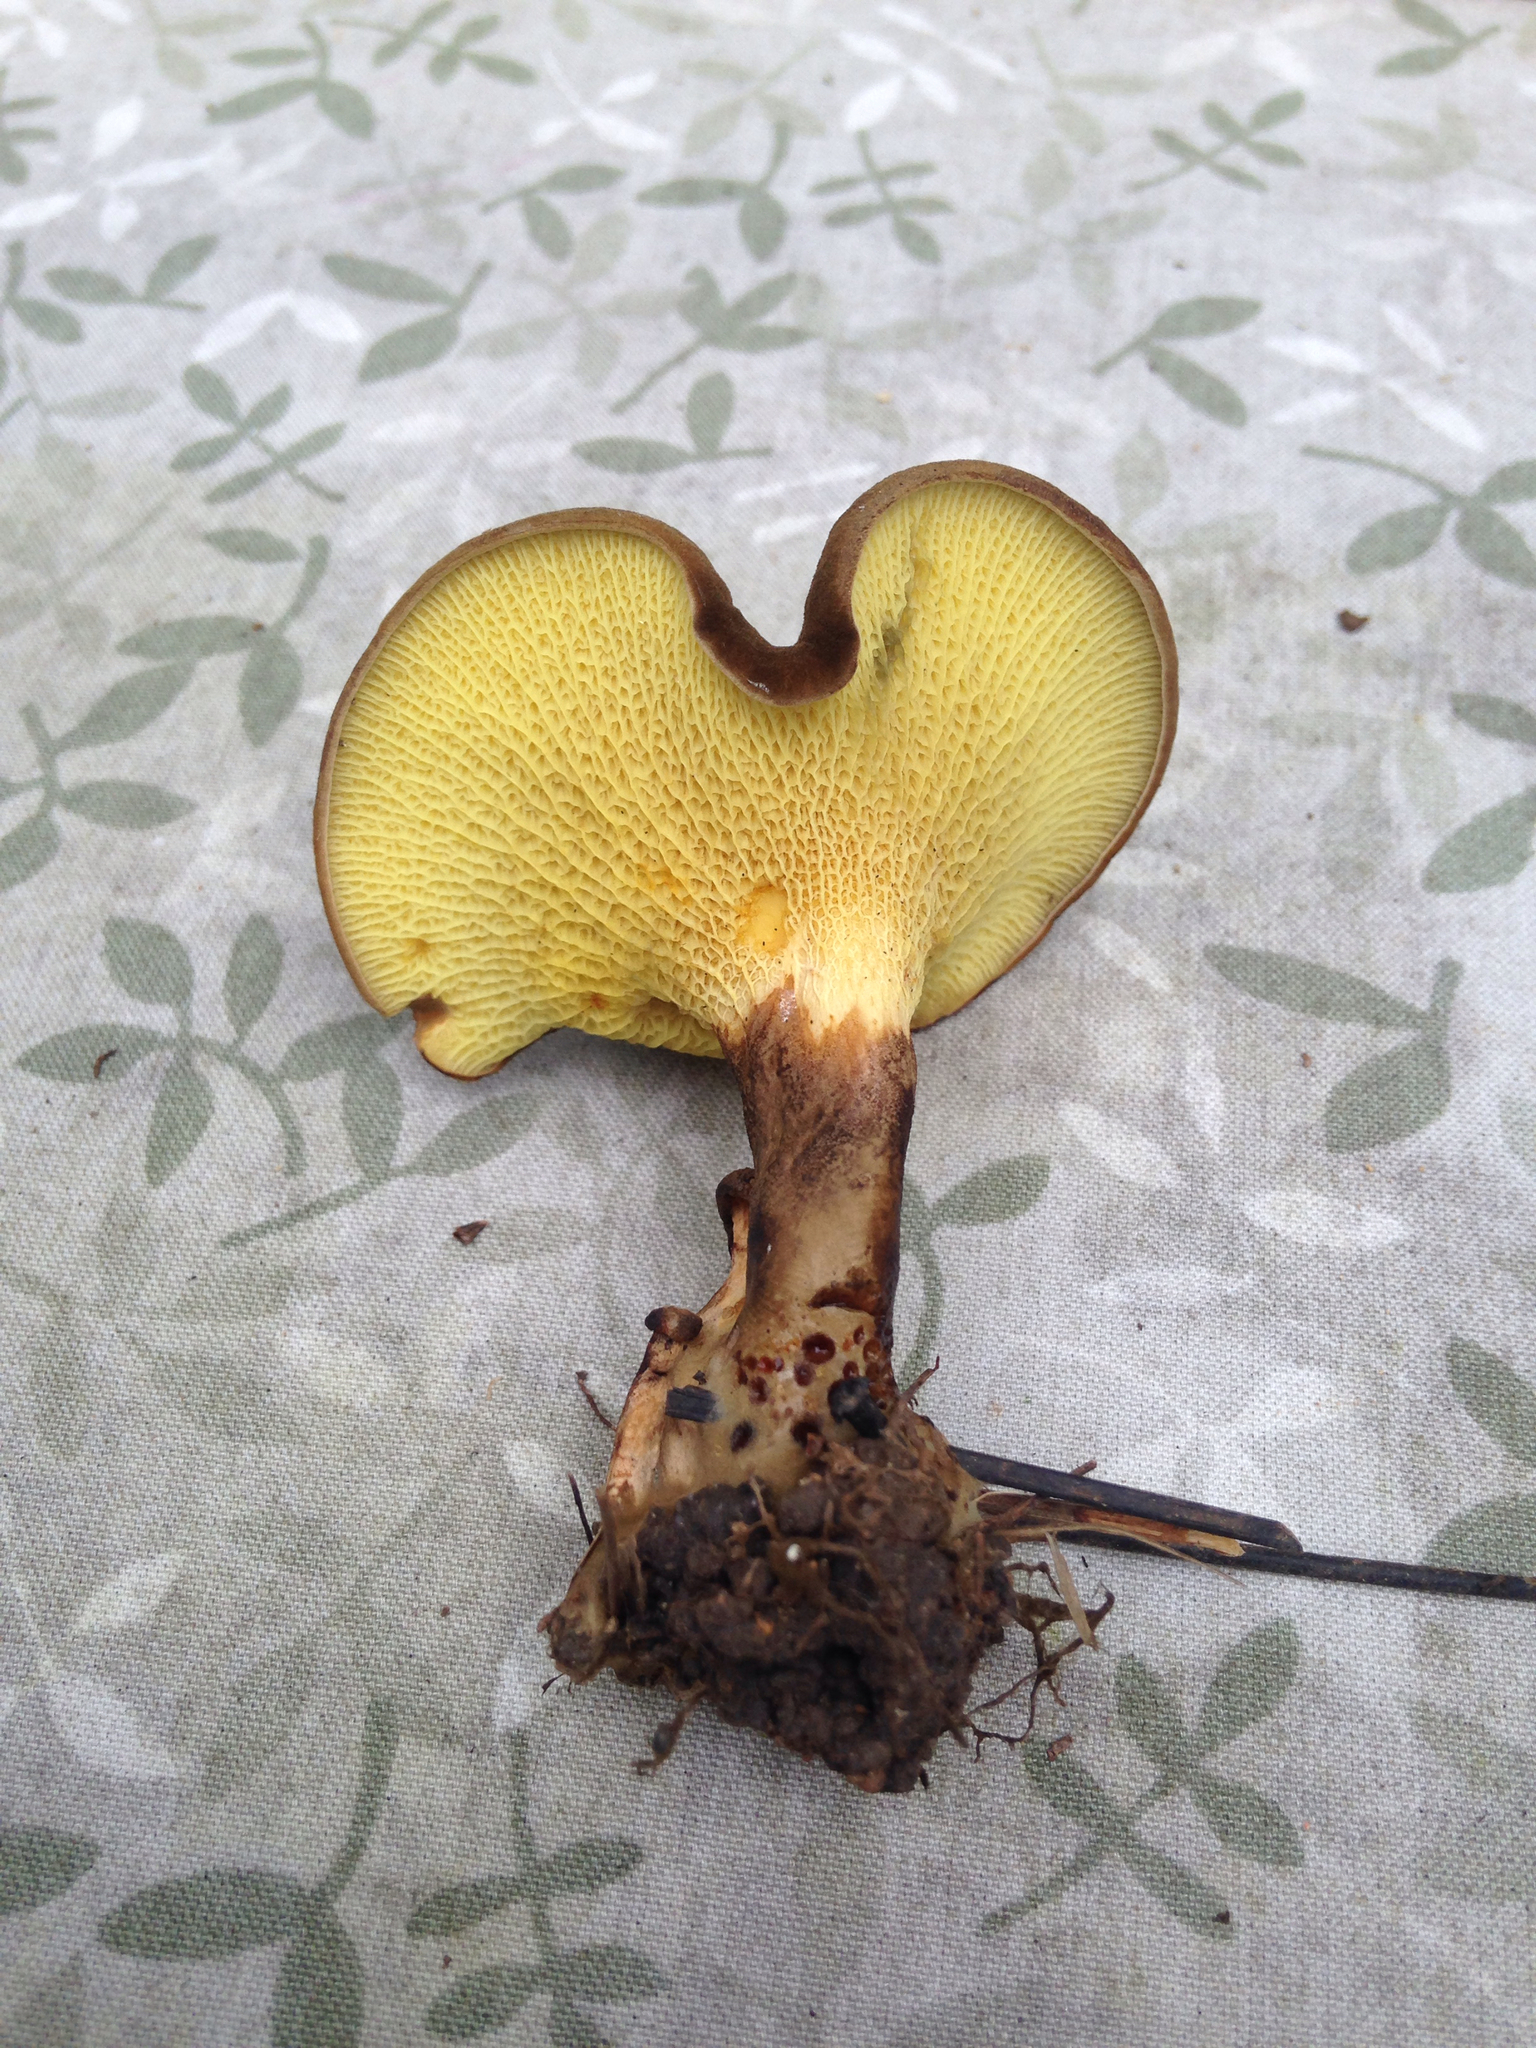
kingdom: Fungi
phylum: Basidiomycota
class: Agaricomycetes
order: Boletales
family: Boletinellaceae
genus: Boletinellus
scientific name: Boletinellus merulioides
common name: Ash tree bolete
